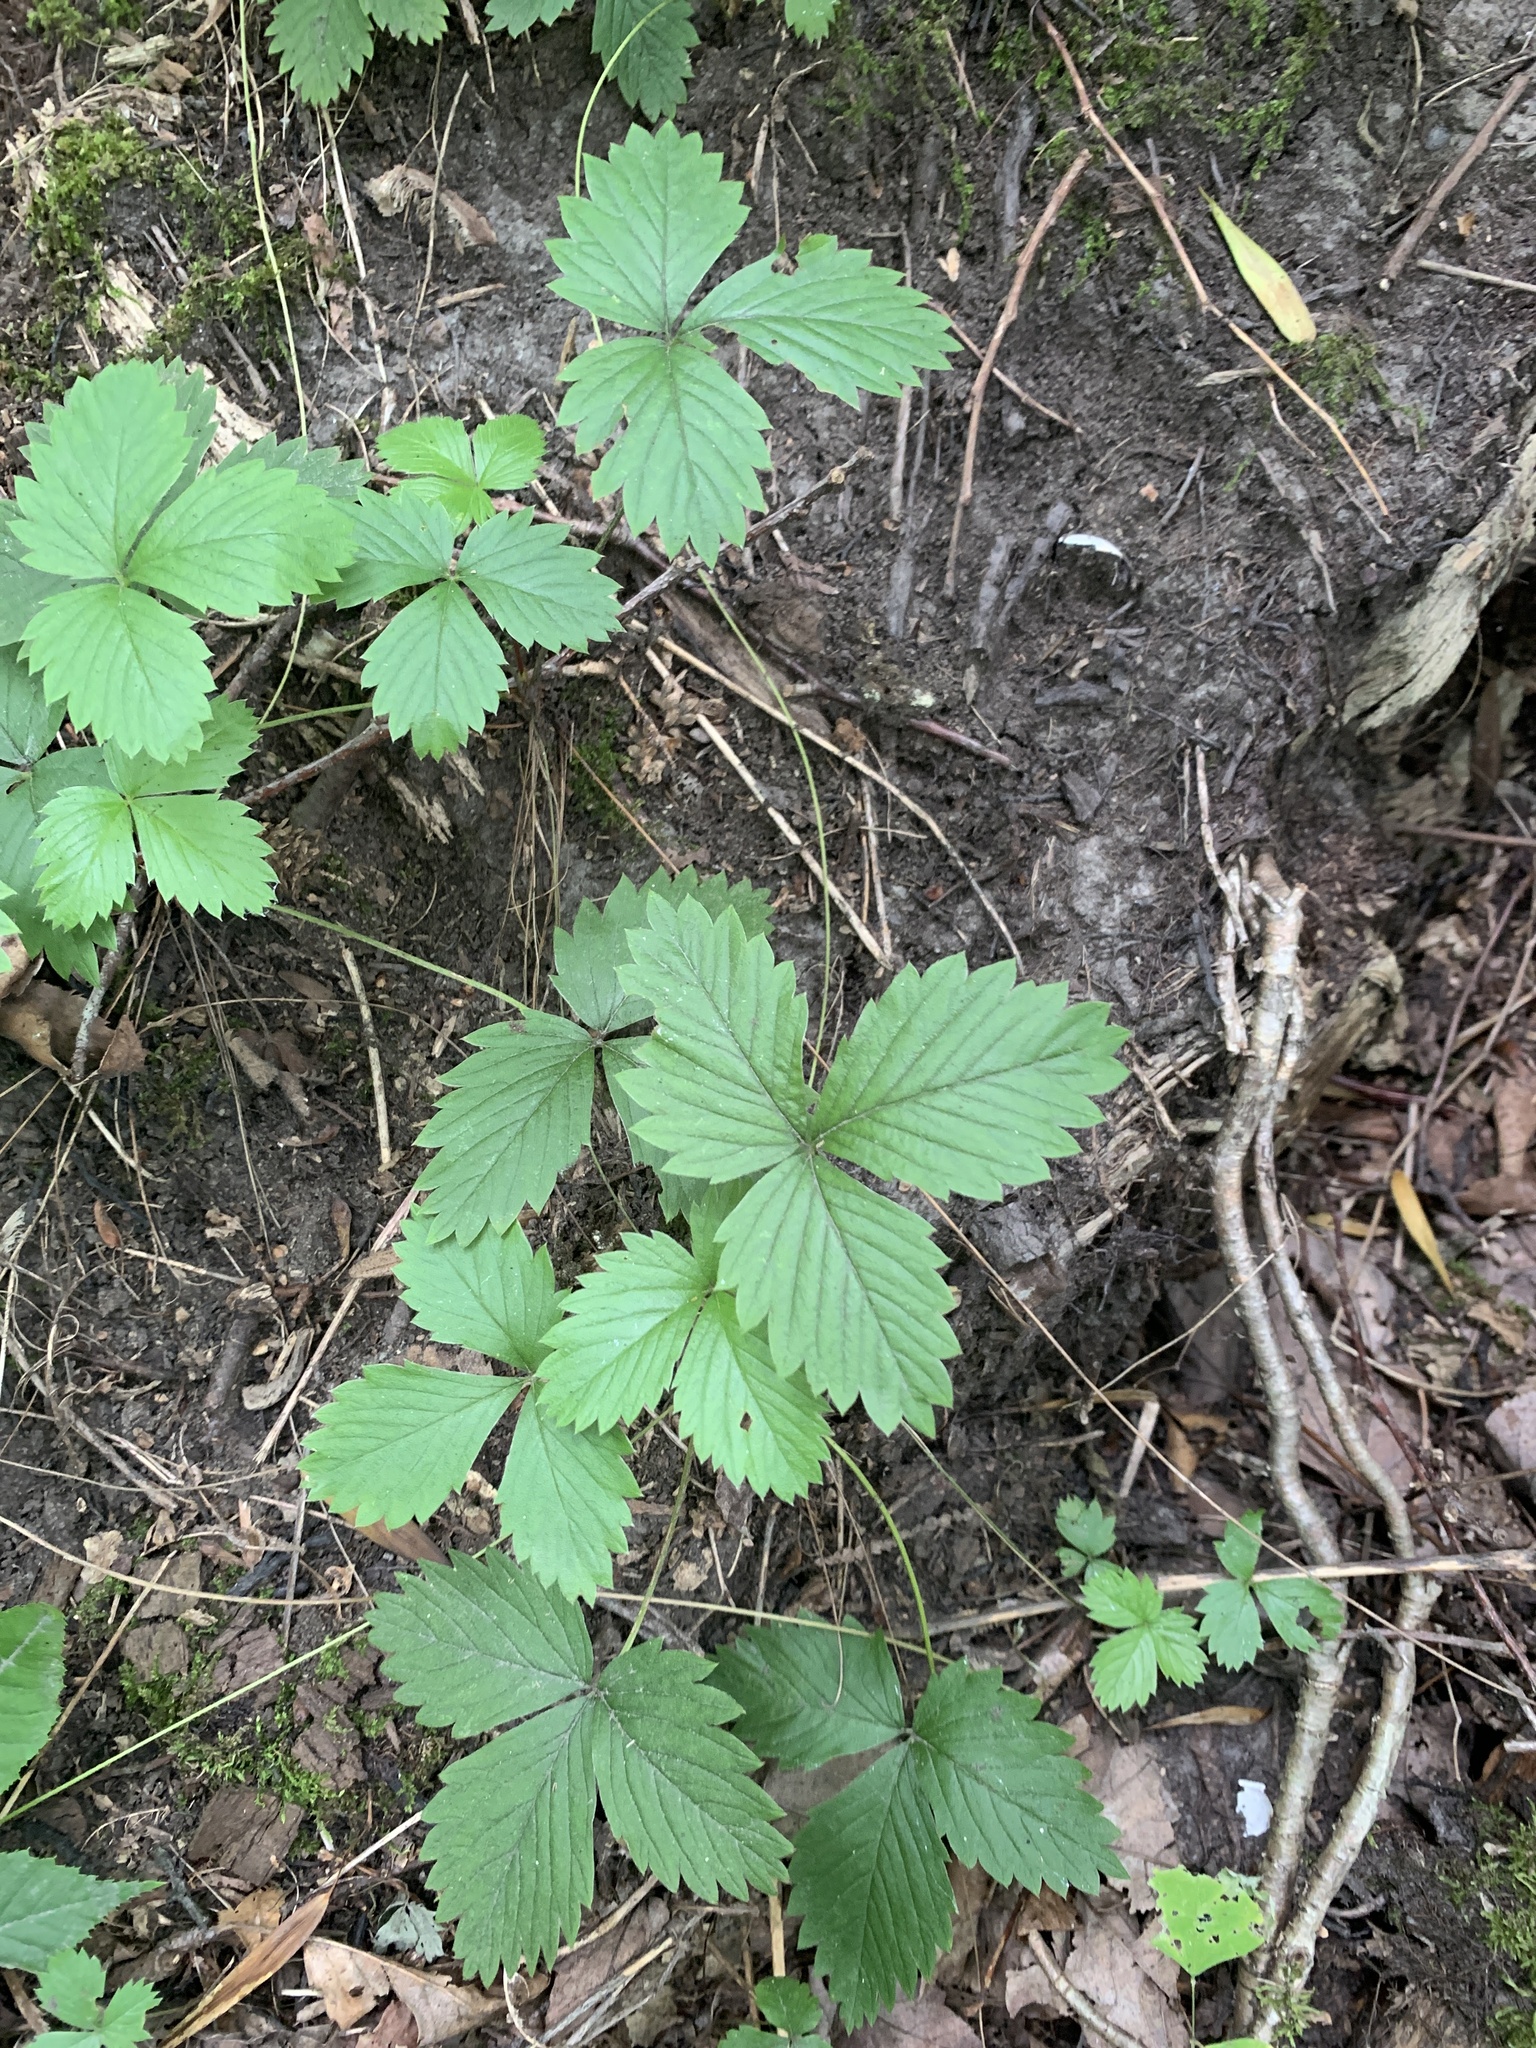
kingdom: Plantae
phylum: Tracheophyta
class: Magnoliopsida
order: Rosales
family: Rosaceae
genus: Fragaria
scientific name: Fragaria vesca
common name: Wild strawberry
